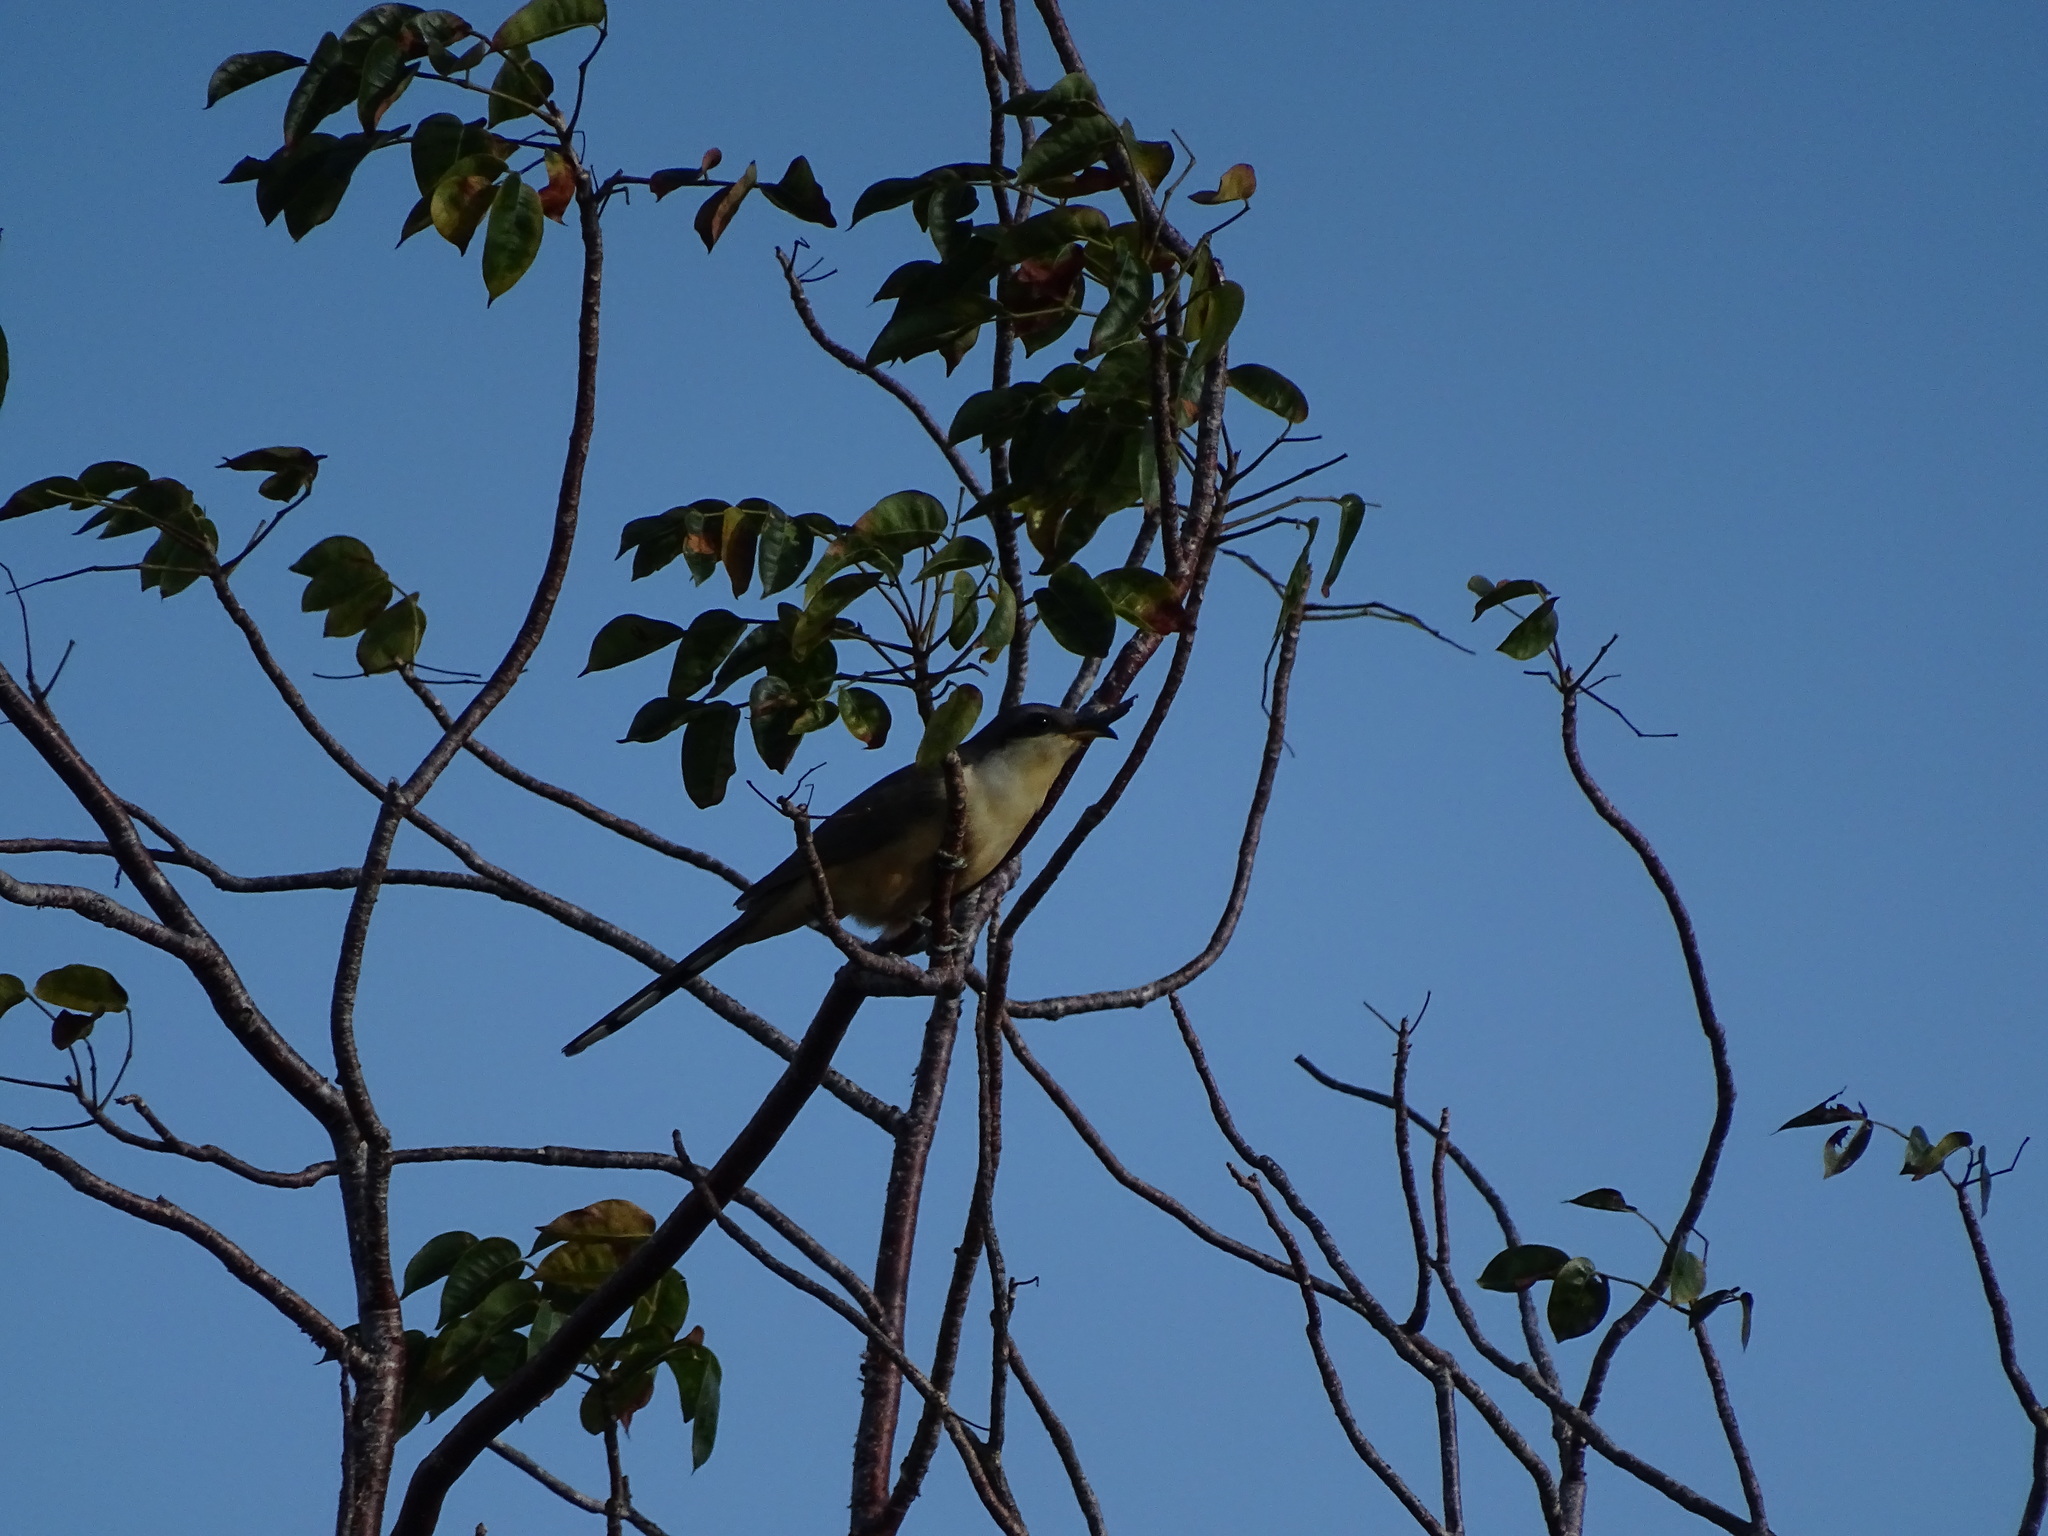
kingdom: Animalia
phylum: Chordata
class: Aves
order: Cuculiformes
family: Cuculidae
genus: Coccyzus
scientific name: Coccyzus minor
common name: Mangrove cuckoo
